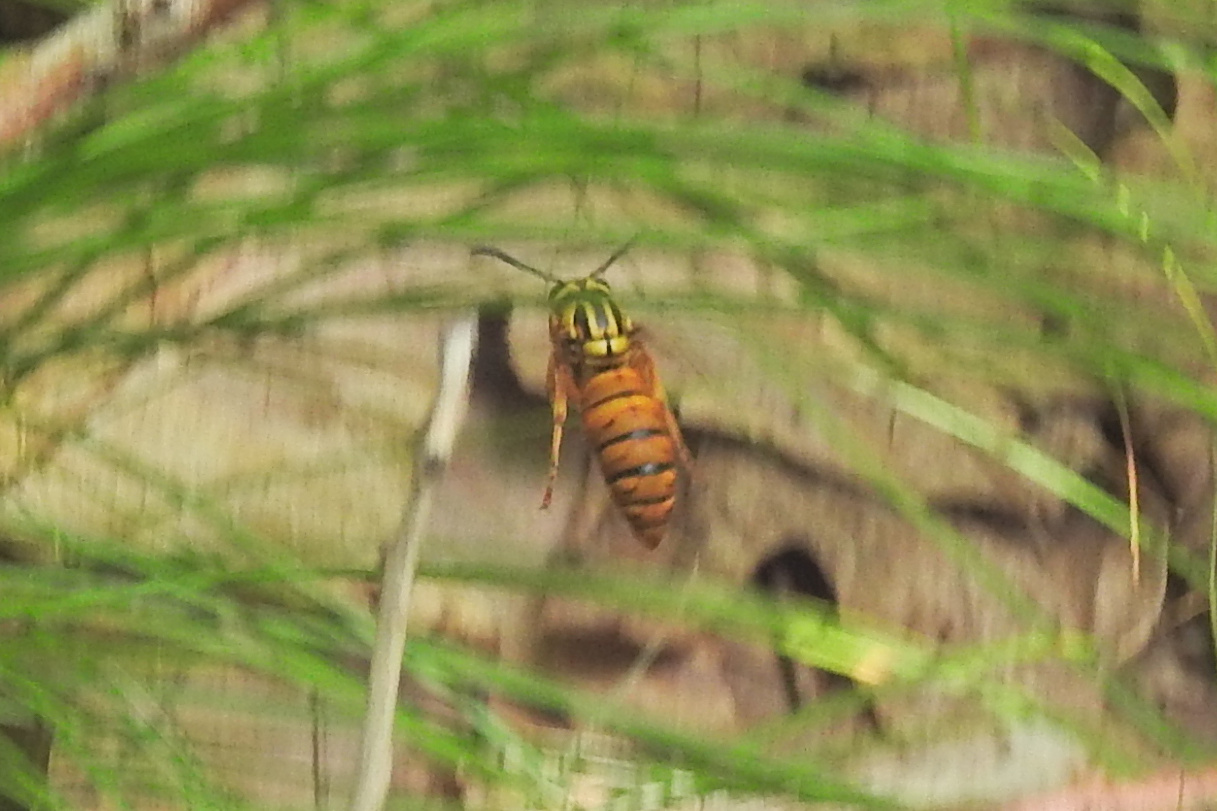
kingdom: Animalia
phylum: Arthropoda
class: Insecta
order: Hymenoptera
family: Vespidae
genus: Vespula
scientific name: Vespula squamosa
